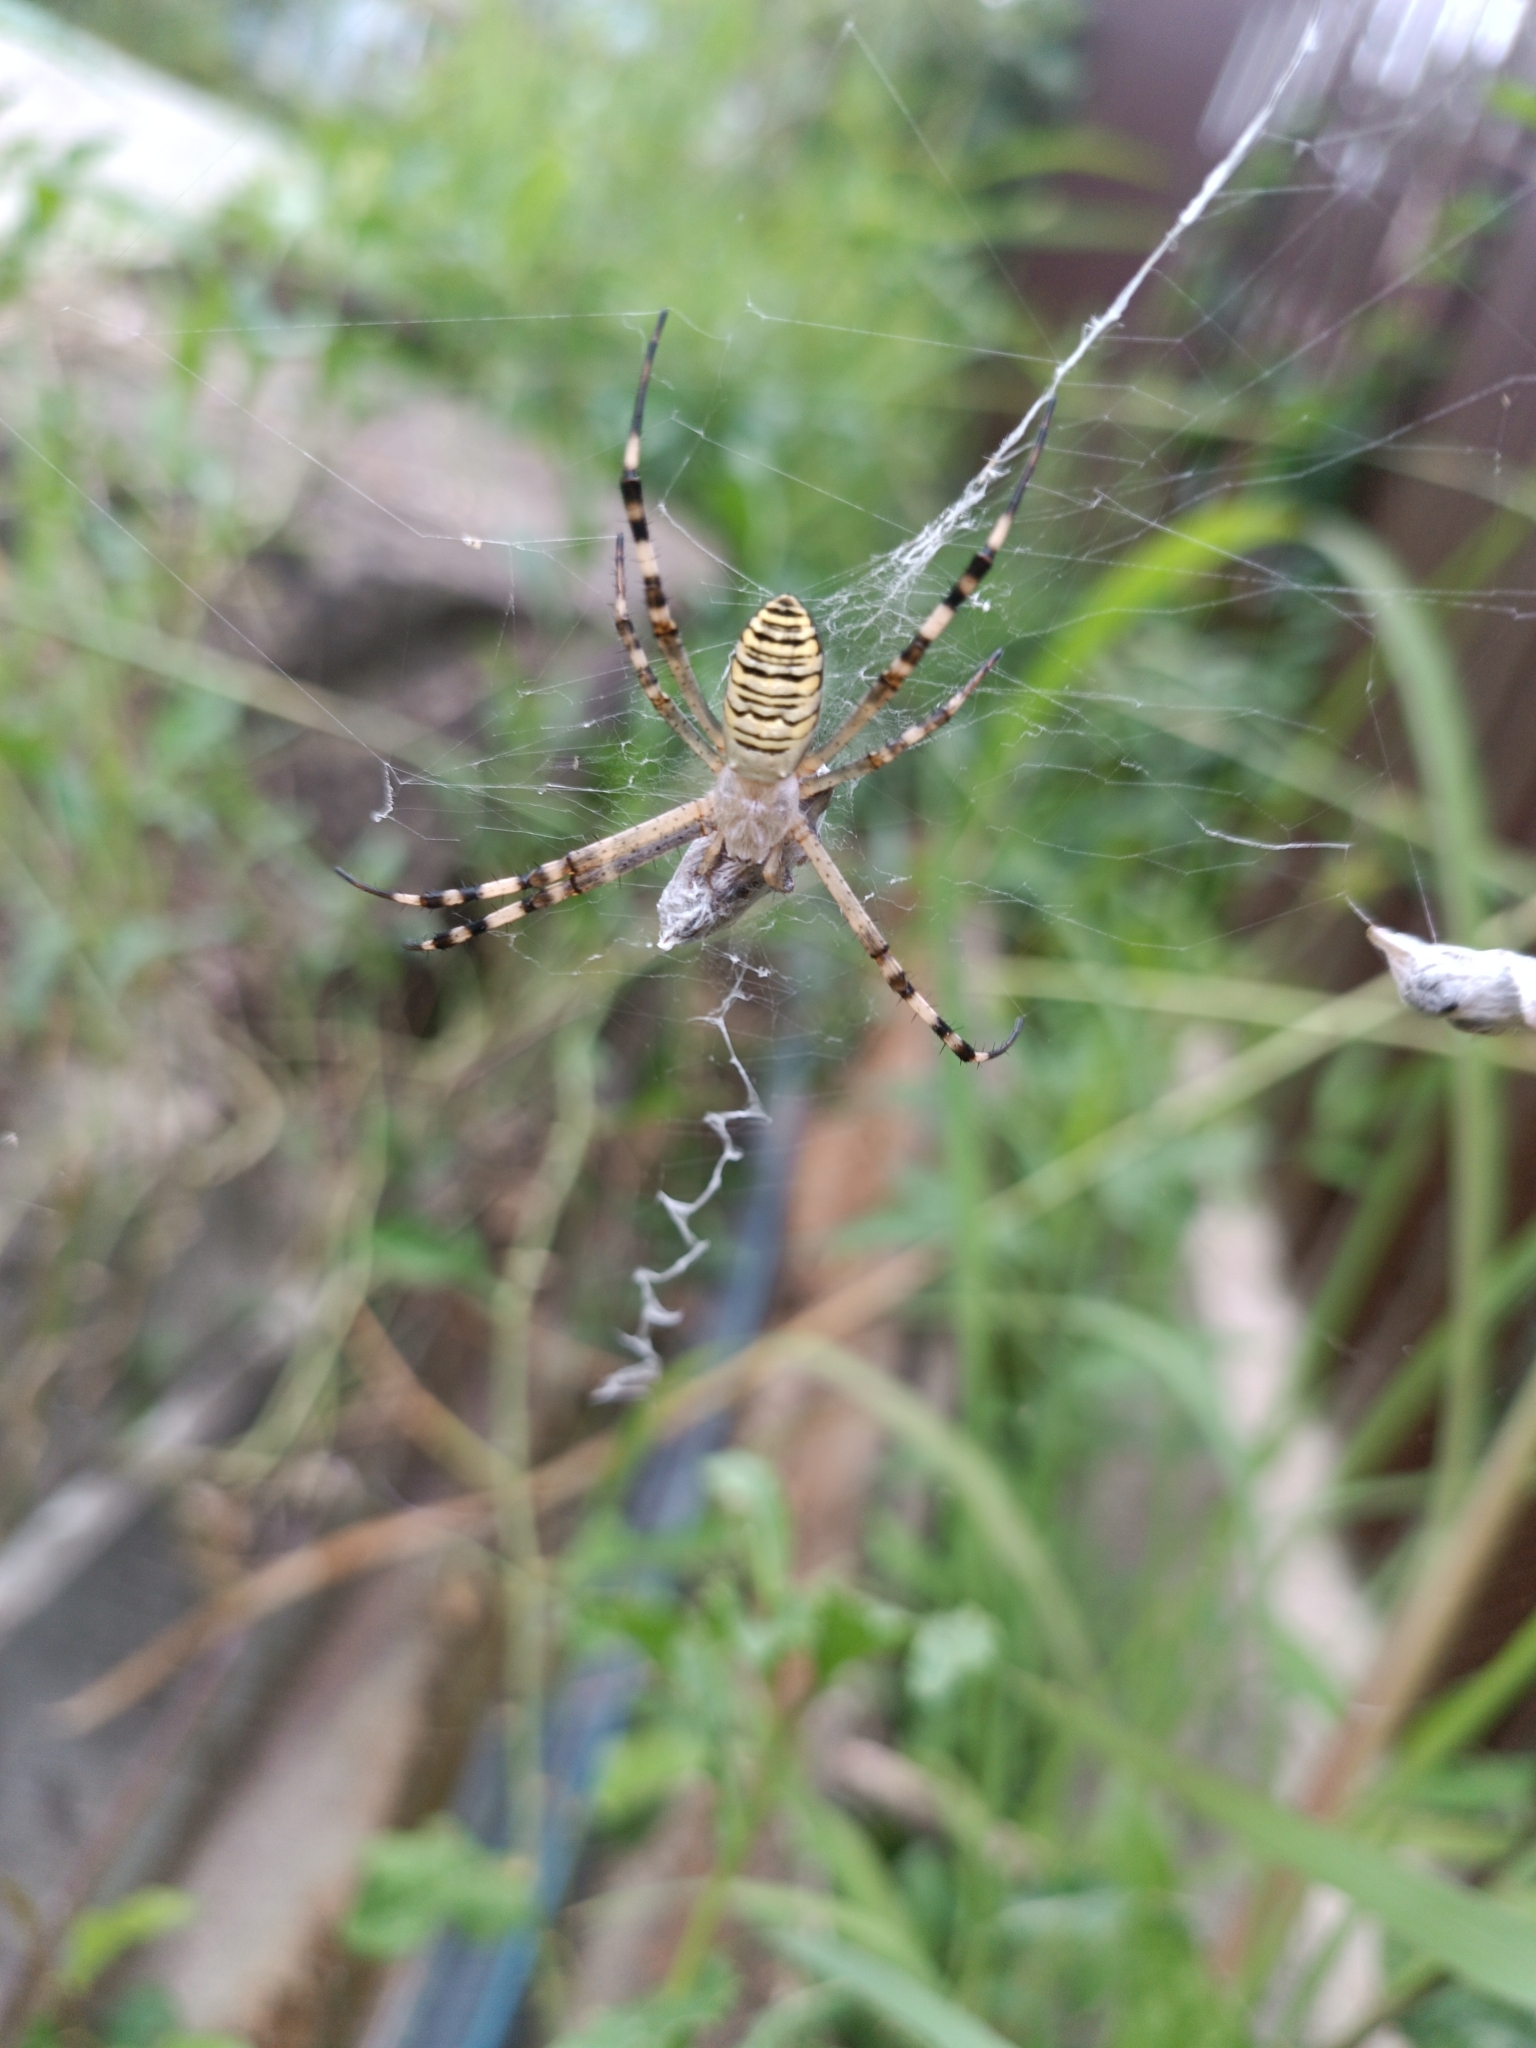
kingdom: Animalia
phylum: Arthropoda
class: Arachnida
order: Araneae
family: Araneidae
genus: Argiope
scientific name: Argiope bruennichi
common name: Wasp spider
